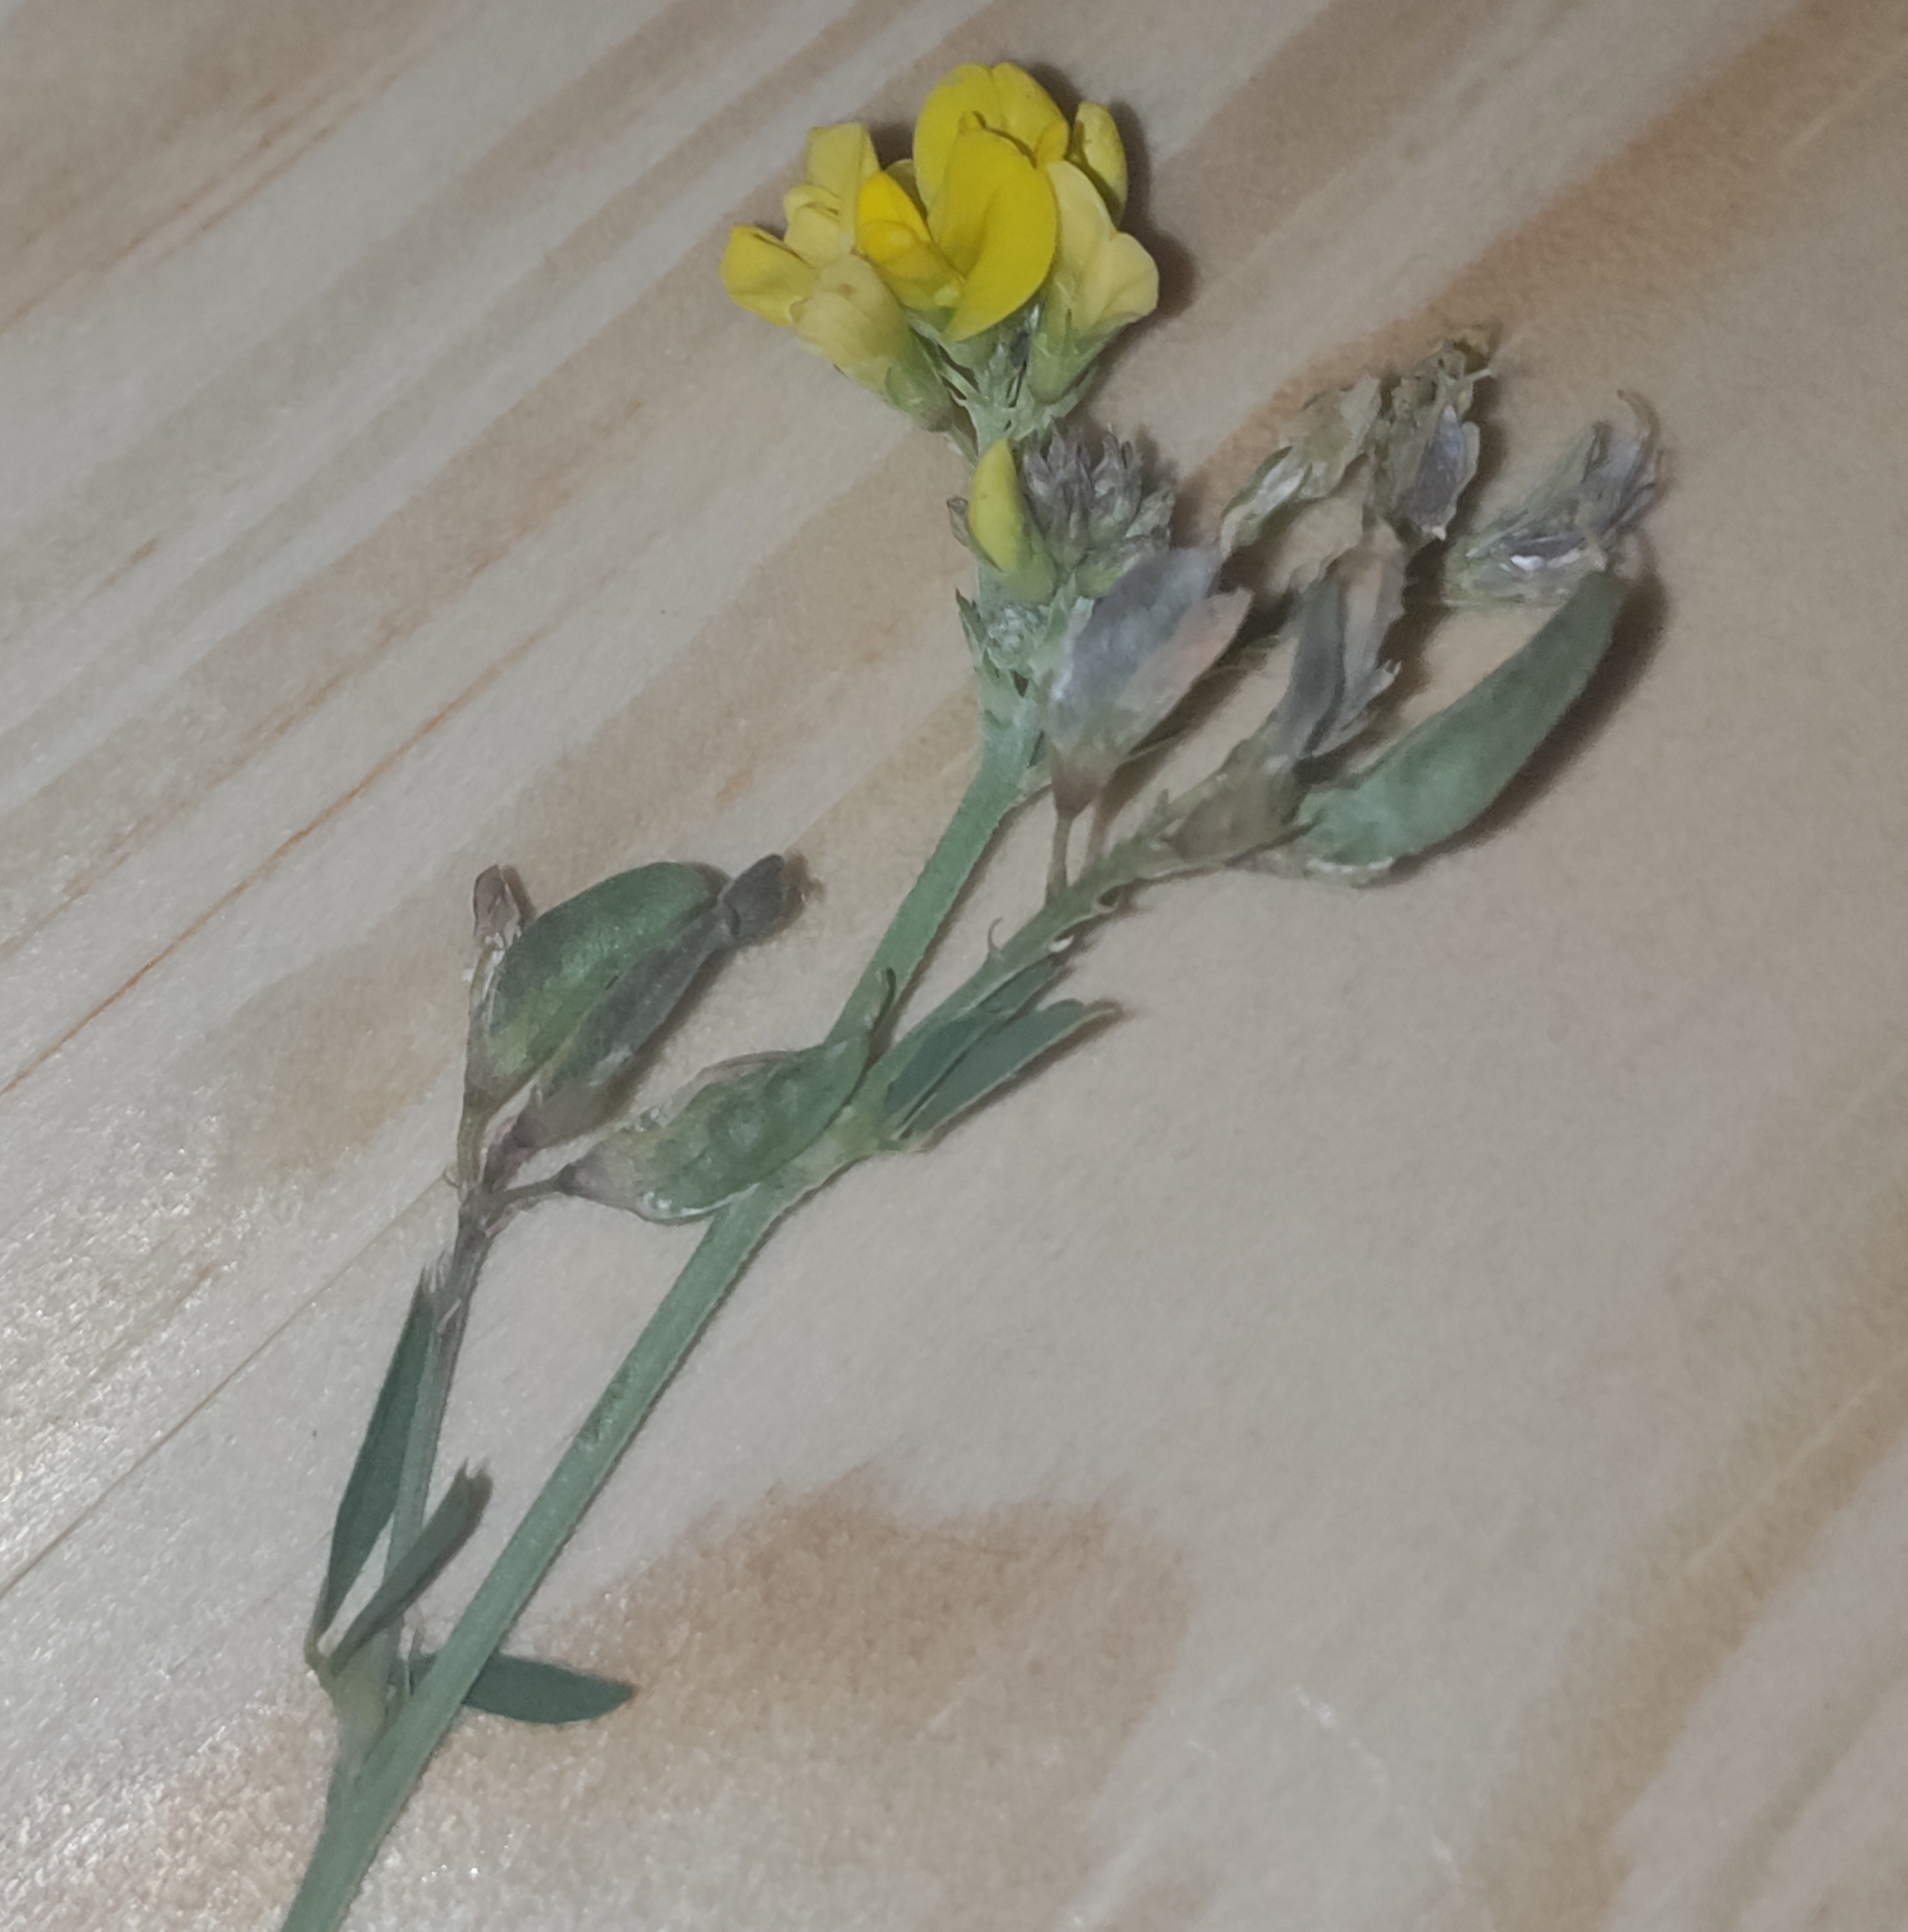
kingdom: Plantae
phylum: Tracheophyta
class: Magnoliopsida
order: Fabales
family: Fabaceae
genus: Medicago
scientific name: Medicago falcata
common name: Sickle medick
